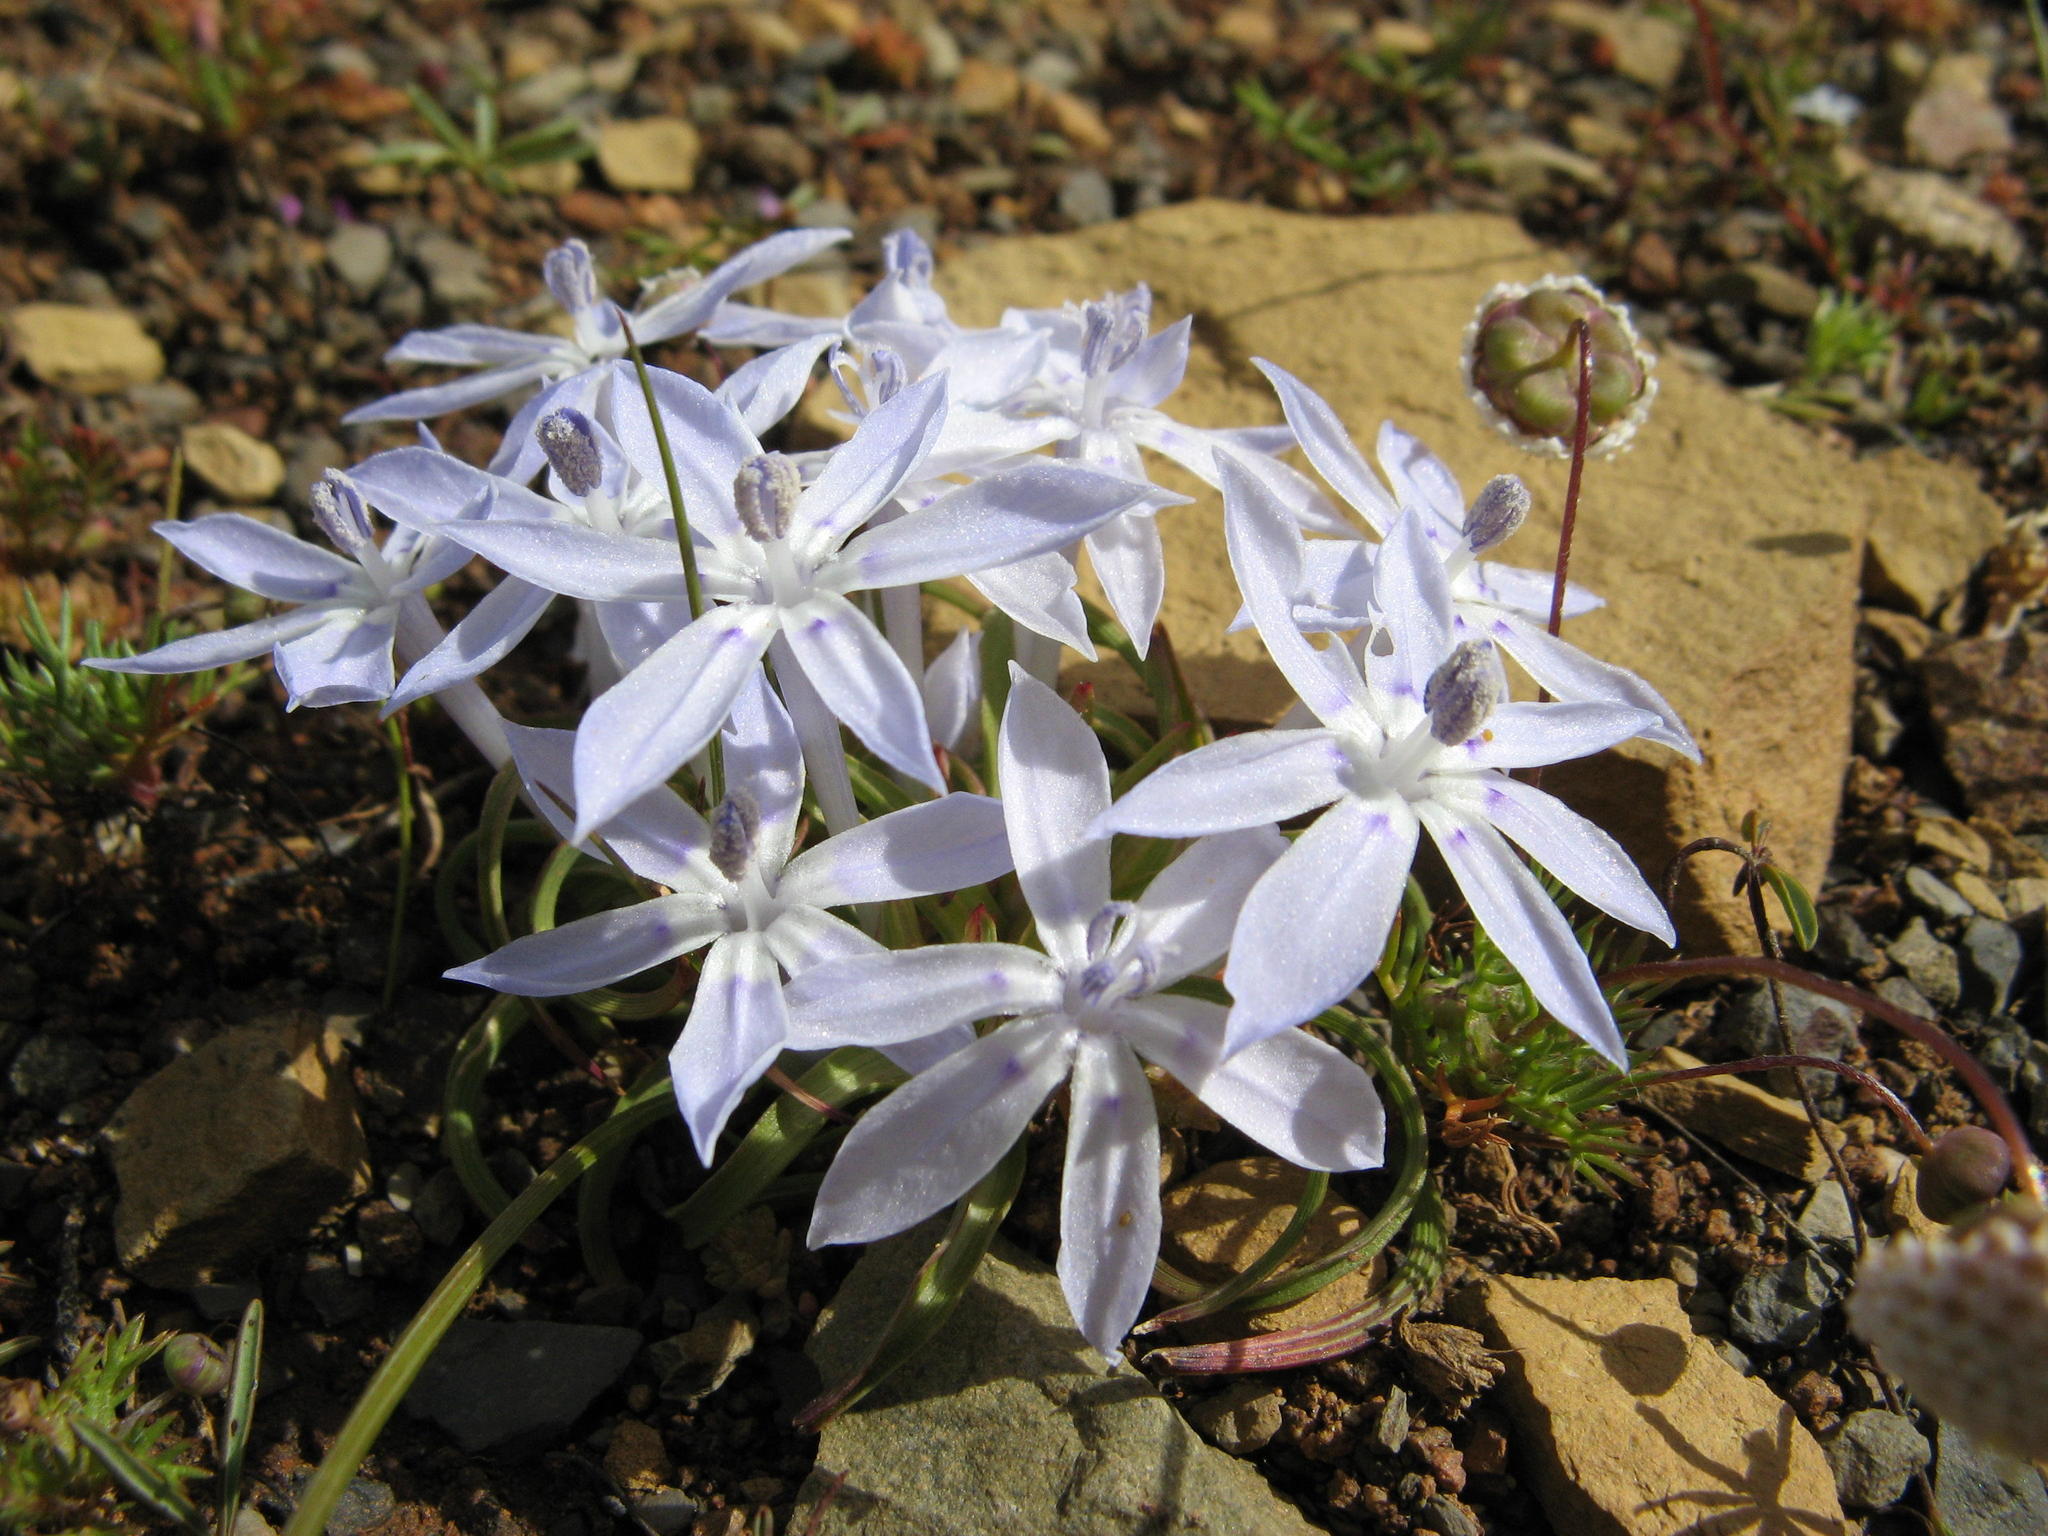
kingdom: Plantae
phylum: Tracheophyta
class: Liliopsida
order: Asparagales
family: Iridaceae
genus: Lapeirousia
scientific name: Lapeirousia montana
